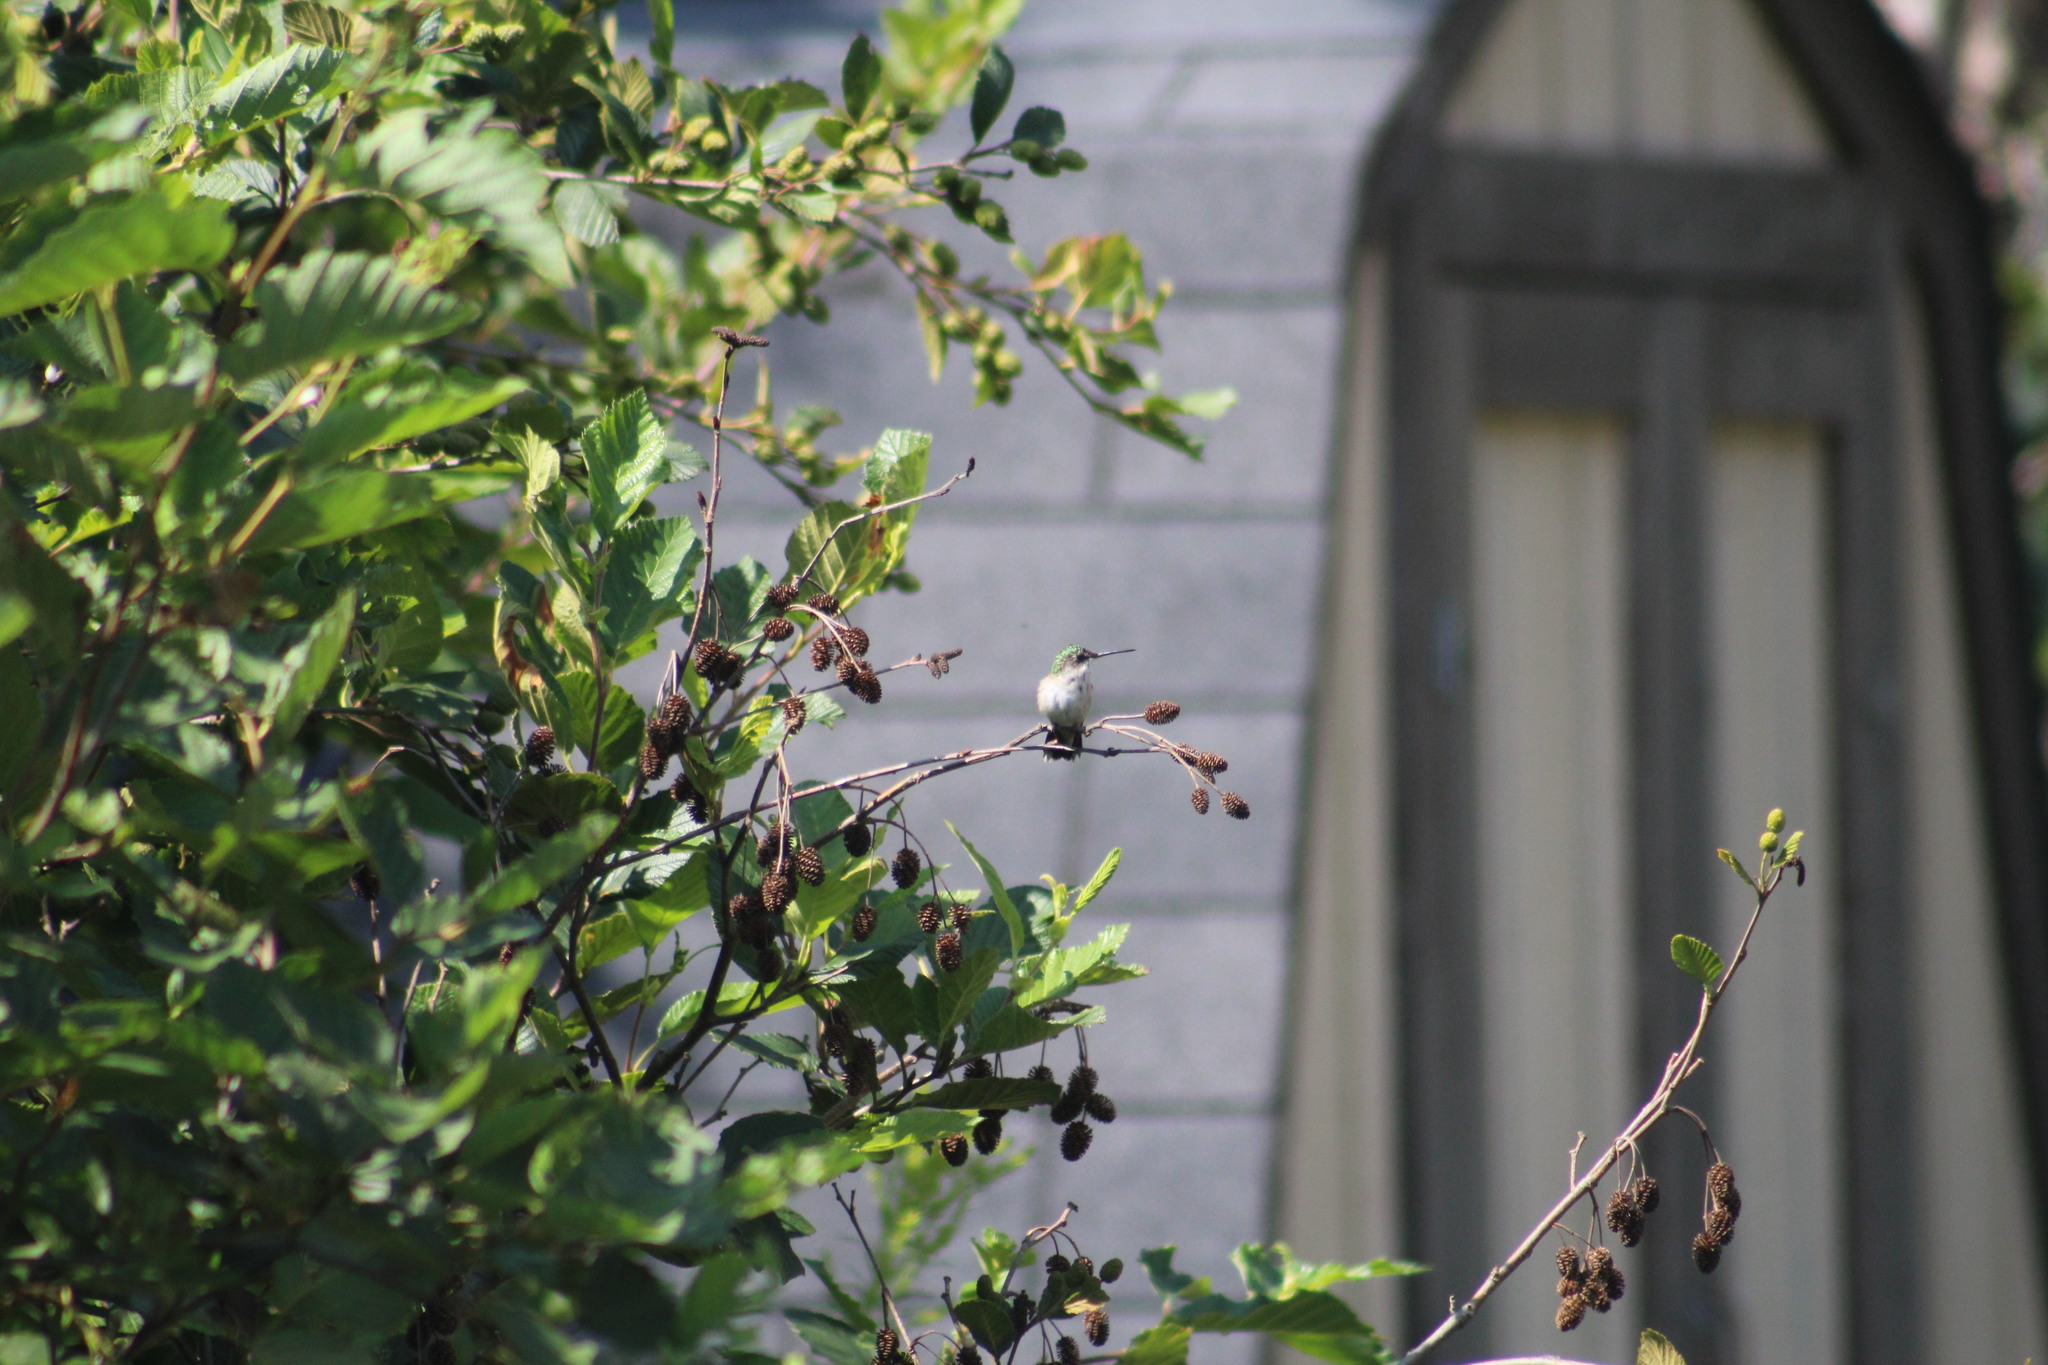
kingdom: Animalia
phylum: Chordata
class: Aves
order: Apodiformes
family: Trochilidae
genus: Archilochus
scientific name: Archilochus colubris
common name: Ruby-throated hummingbird
